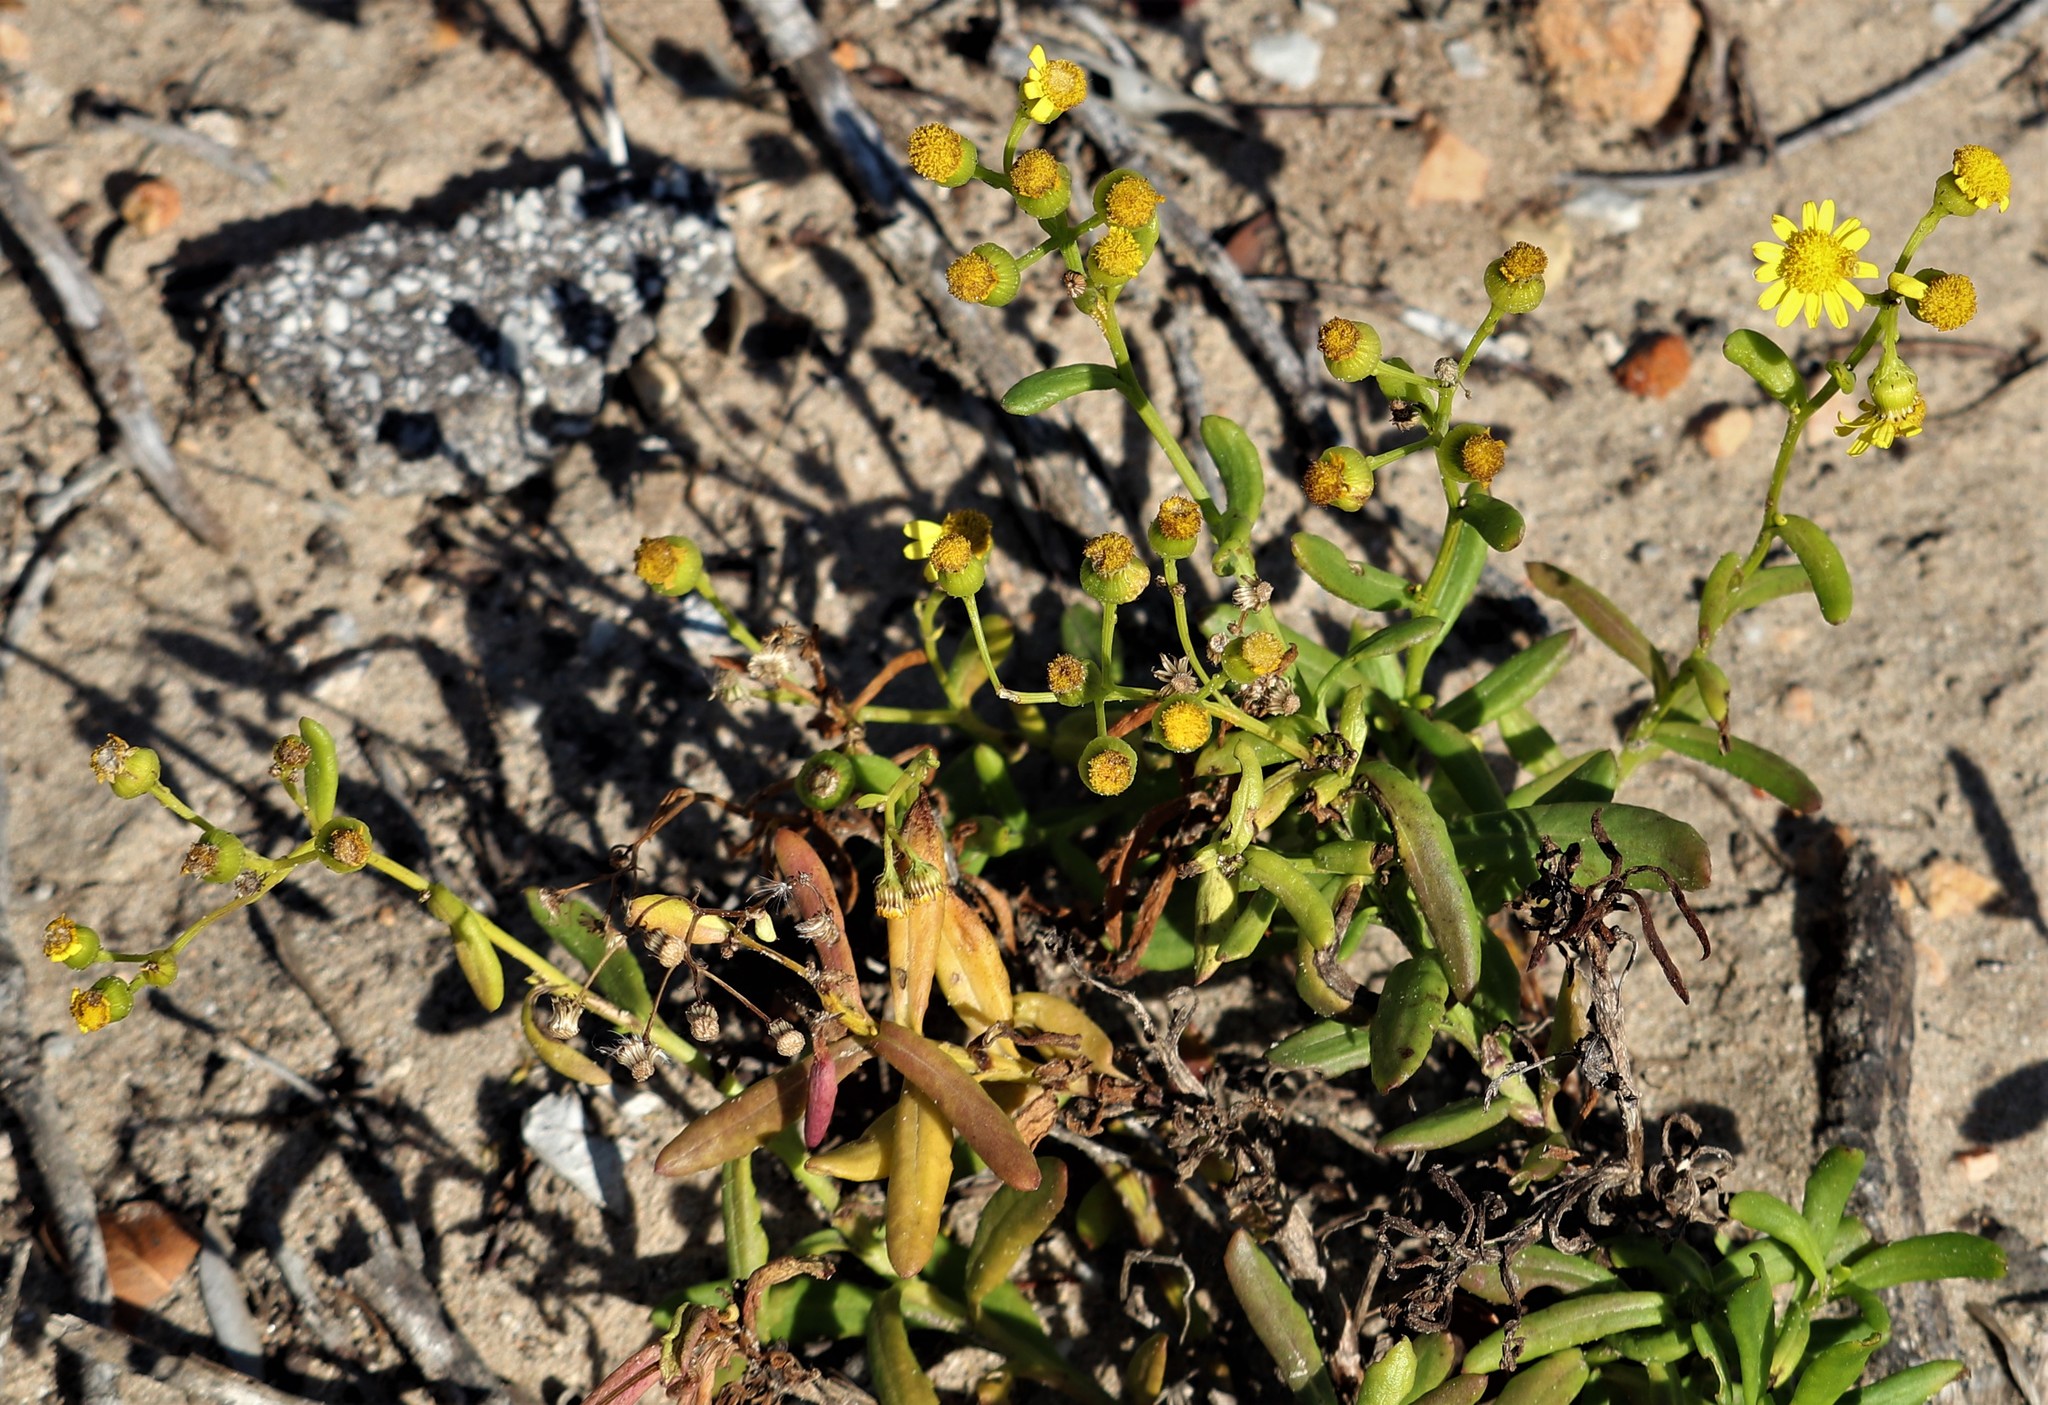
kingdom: Plantae
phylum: Tracheophyta
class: Magnoliopsida
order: Asterales
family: Asteraceae
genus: Senecio
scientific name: Senecio litorosus
